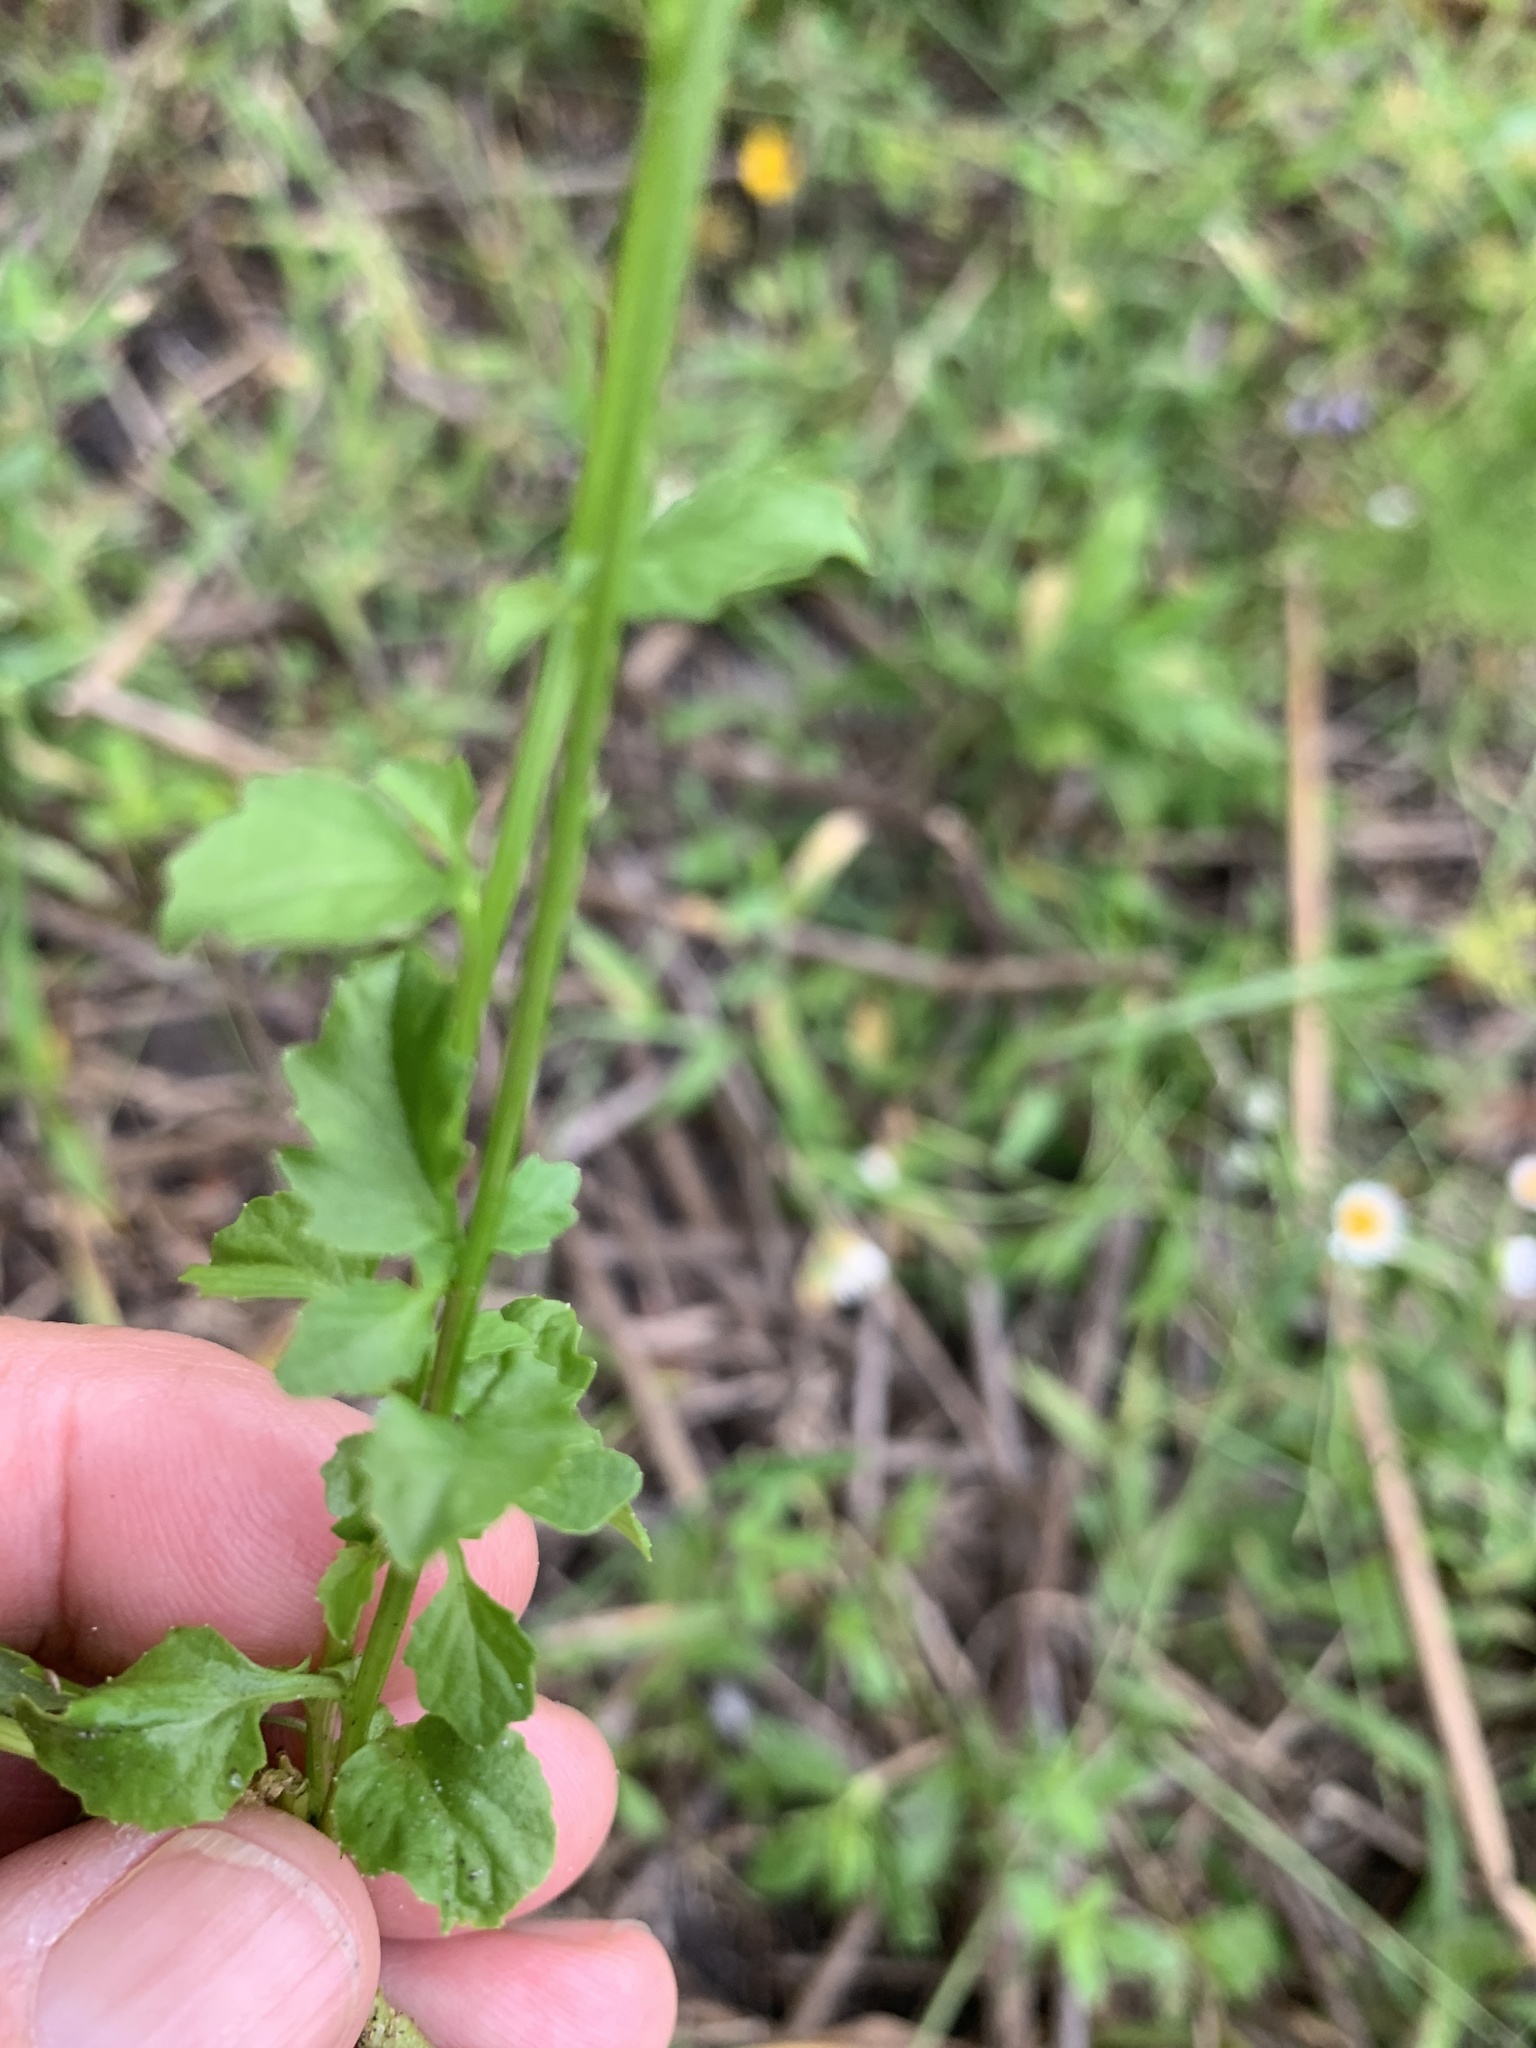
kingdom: Plantae
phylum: Tracheophyta
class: Magnoliopsida
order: Asterales
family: Campanulaceae
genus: Lobelia
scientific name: Lobelia homophylla
